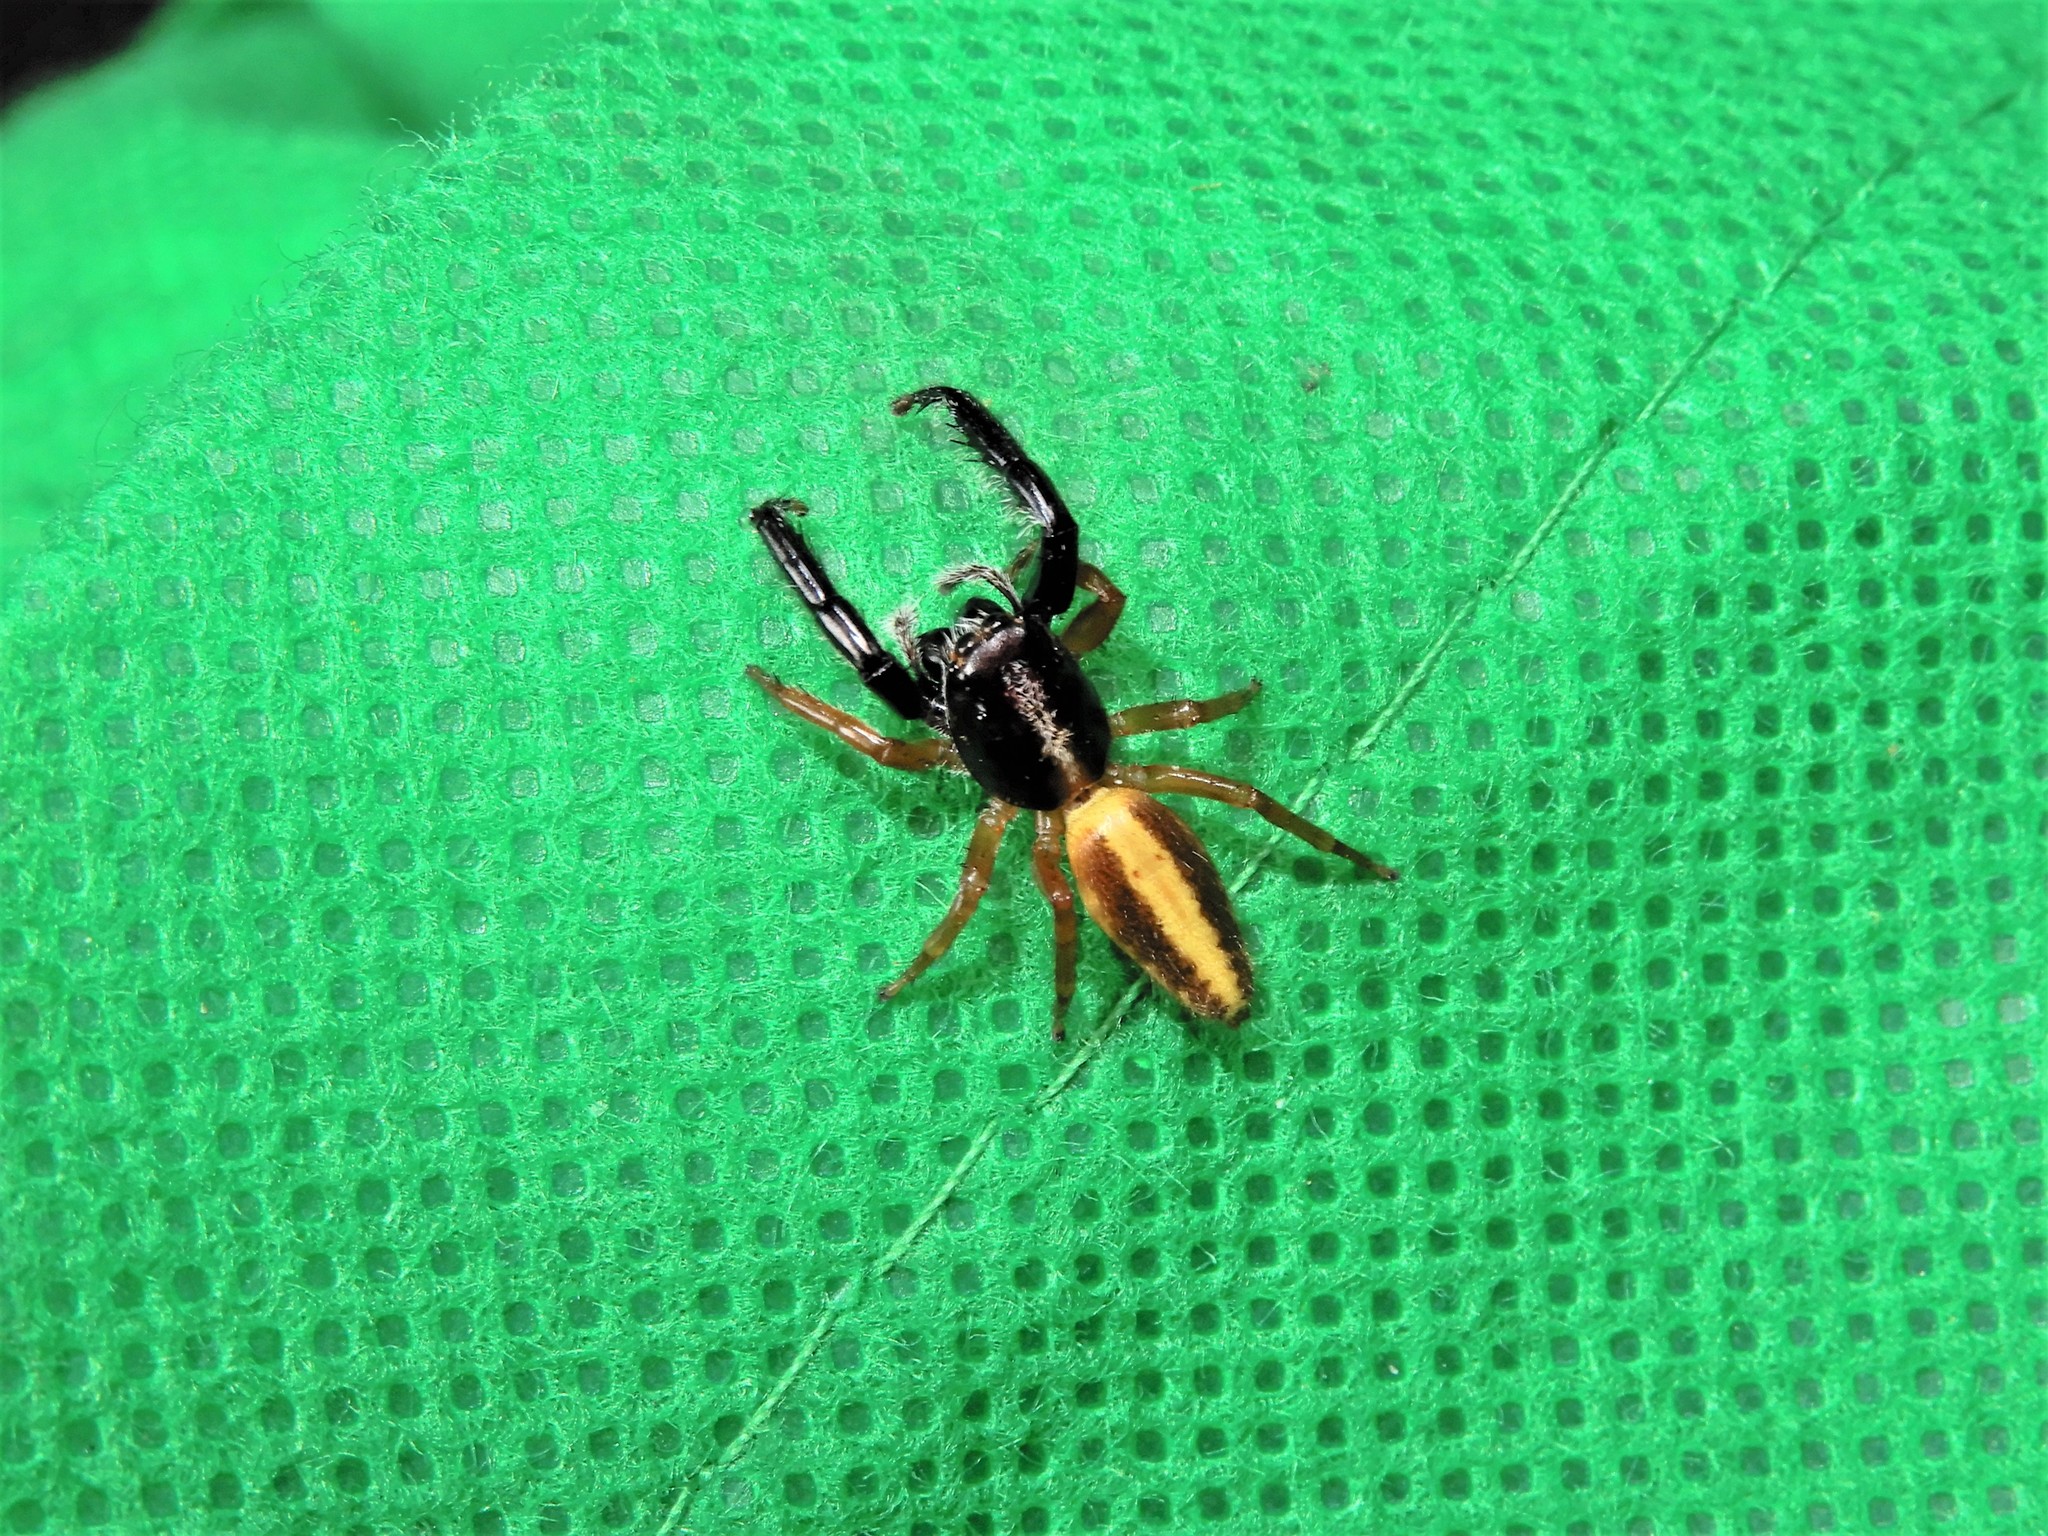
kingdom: Animalia
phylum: Arthropoda
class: Arachnida
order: Araneae
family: Salticidae
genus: Trite
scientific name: Trite planiceps
